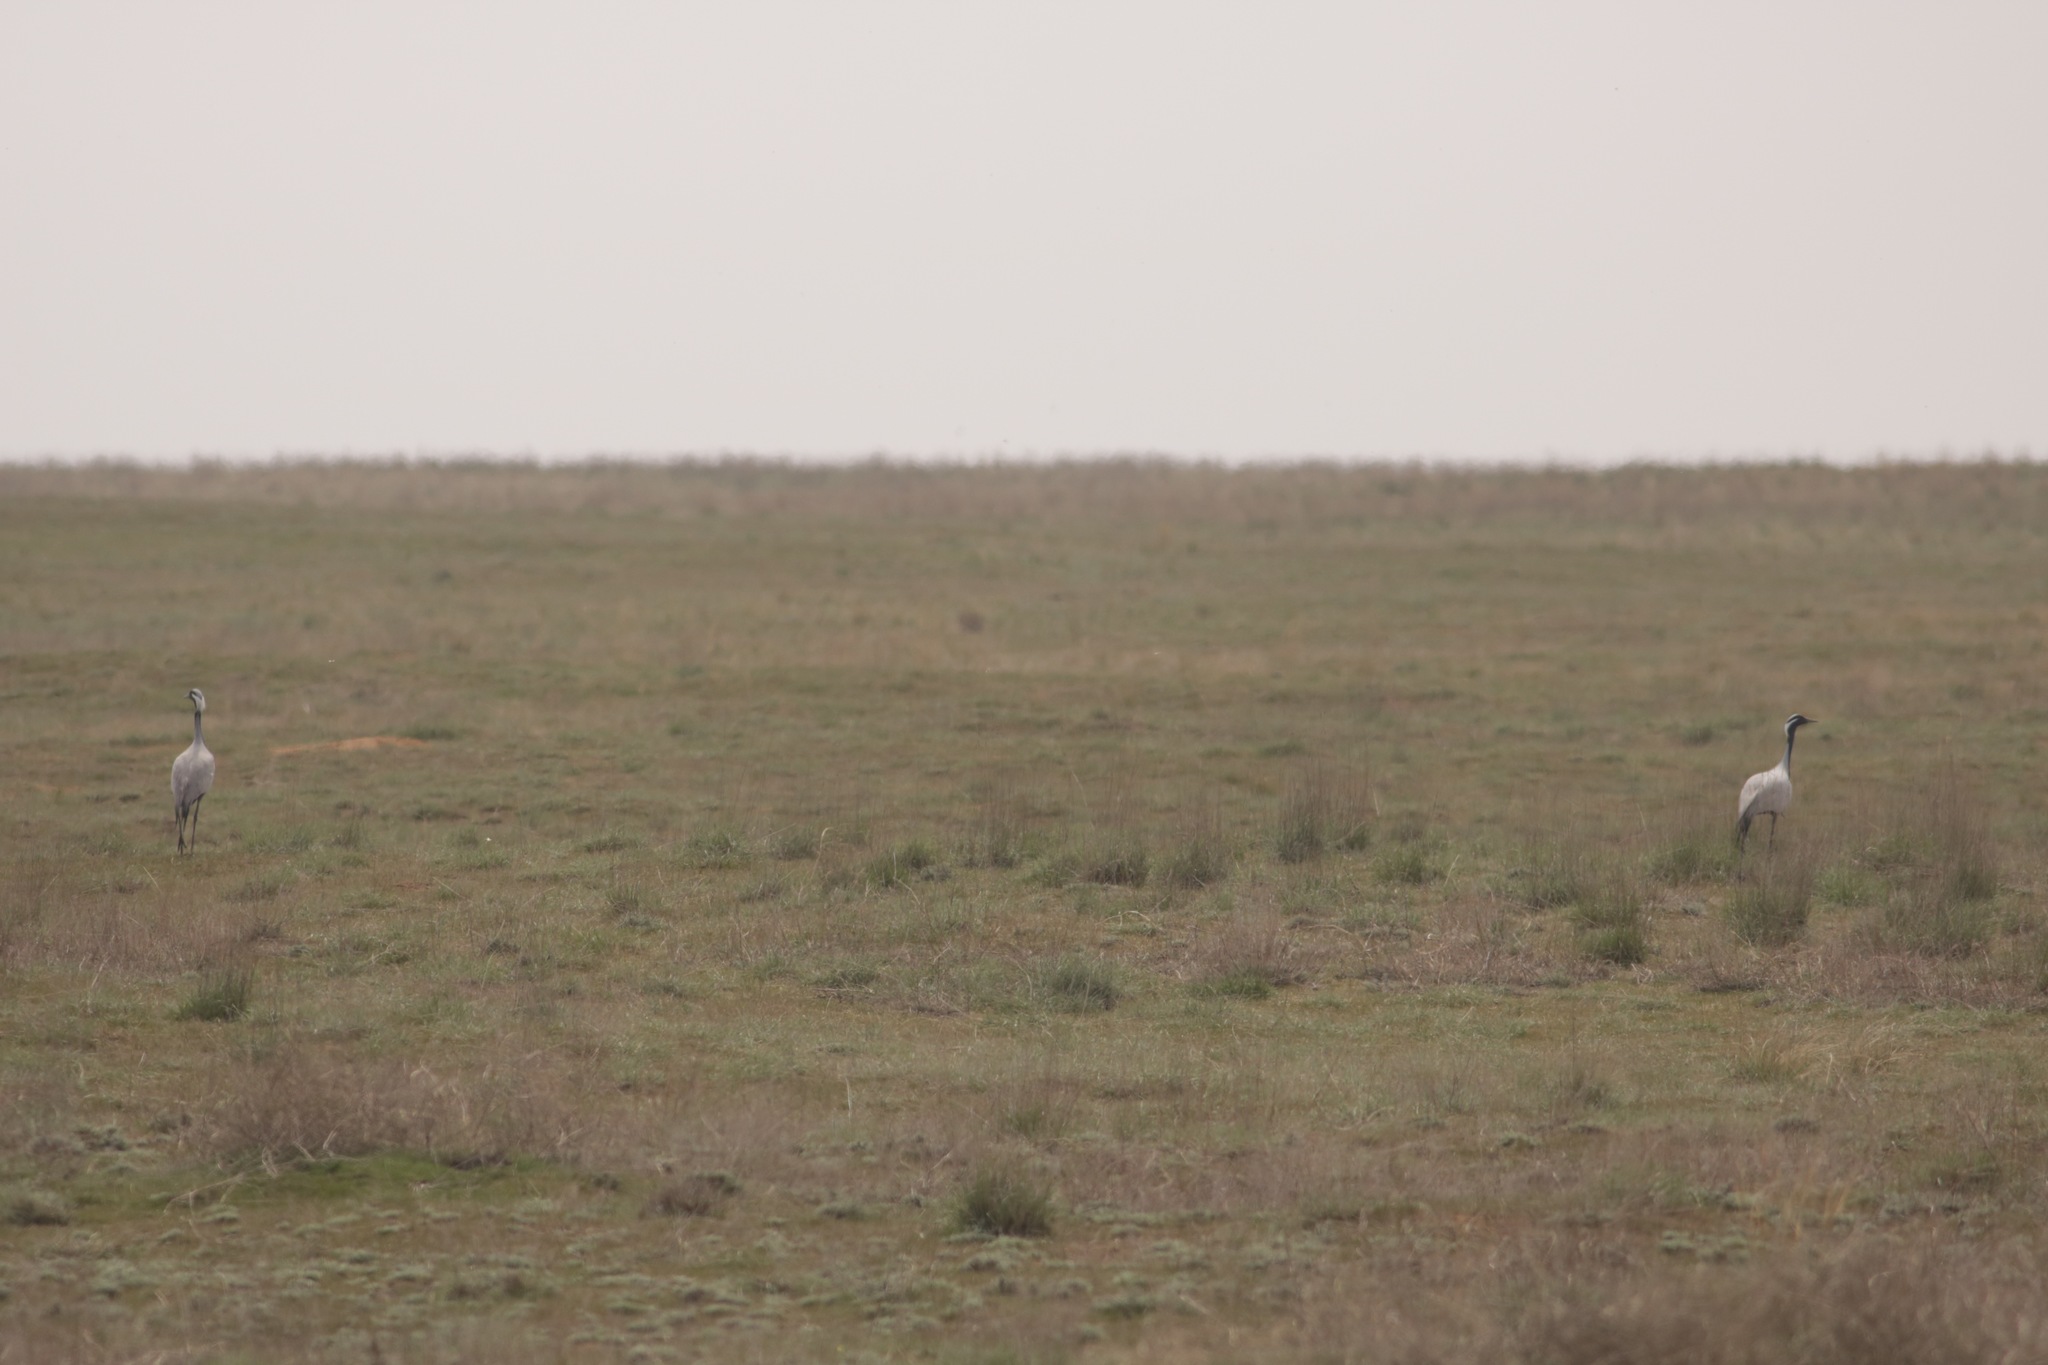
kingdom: Animalia
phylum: Chordata
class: Aves
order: Gruiformes
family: Gruidae
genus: Anthropoides
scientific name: Anthropoides virgo
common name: Demoiselle crane
